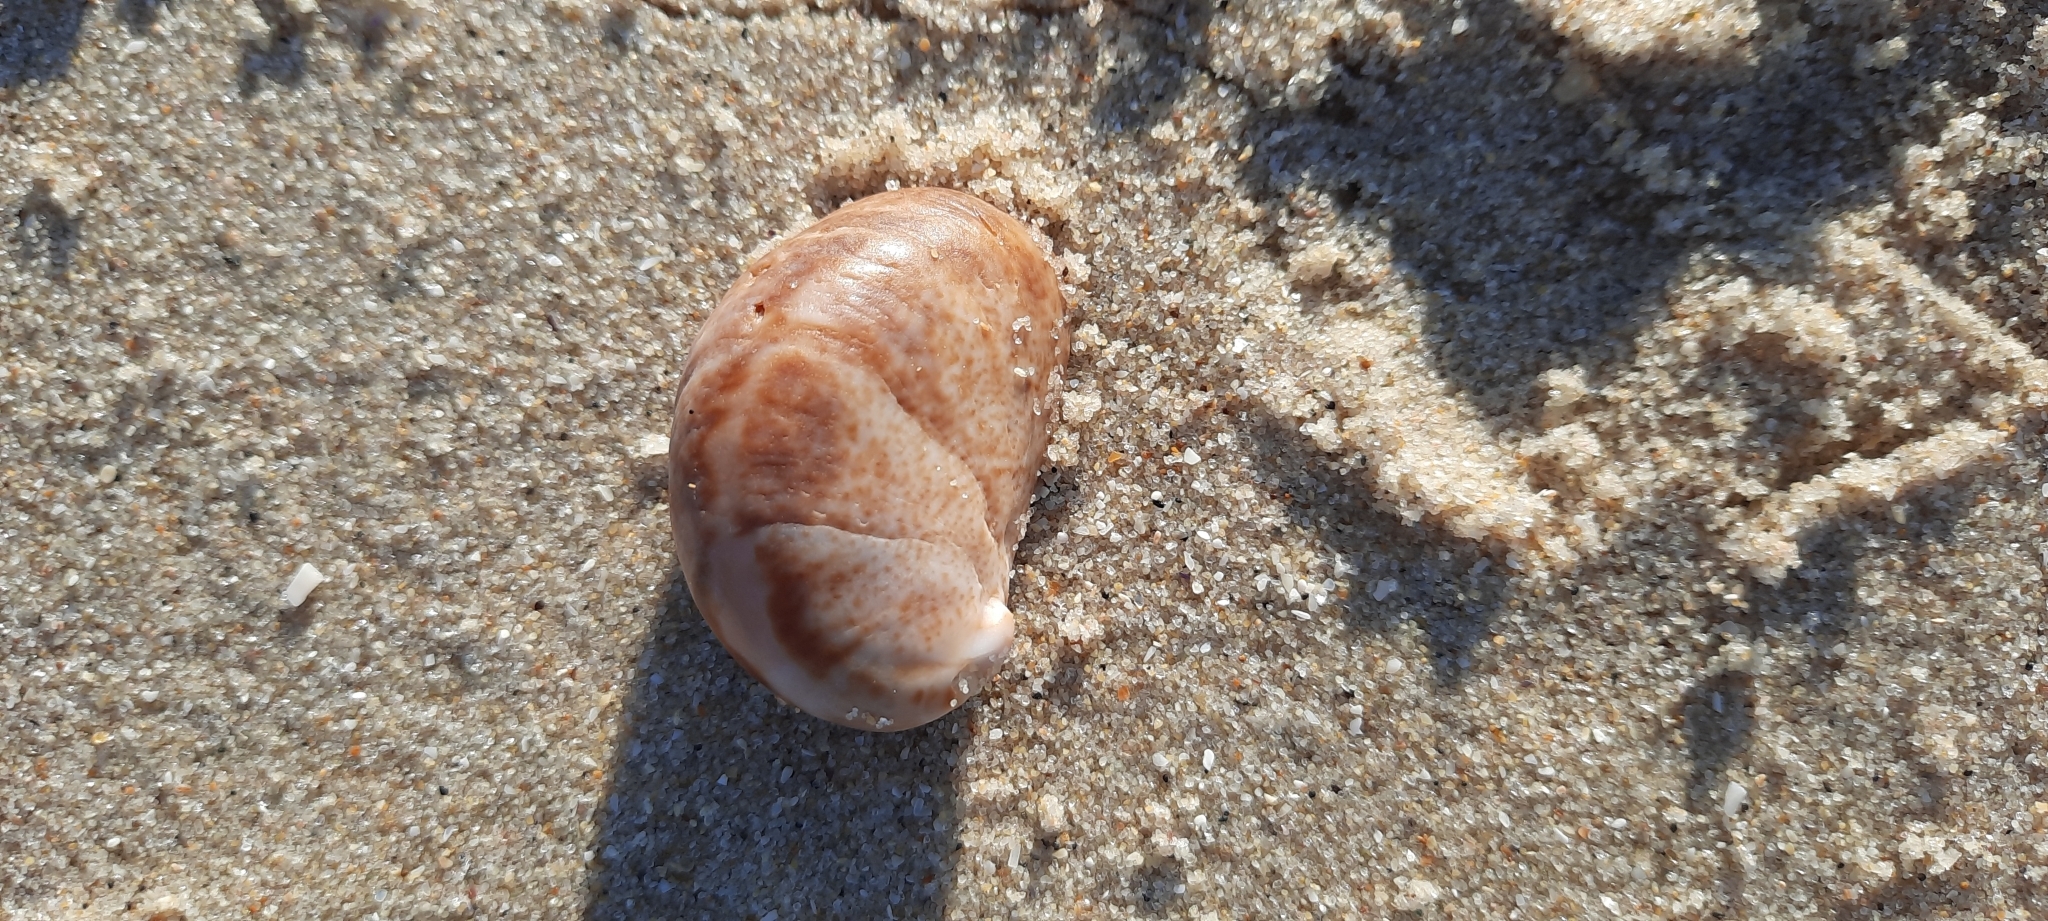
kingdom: Animalia
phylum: Mollusca
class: Gastropoda
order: Littorinimorpha
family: Calyptraeidae
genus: Crepidula
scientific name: Crepidula fornicata
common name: Slipper limpet
